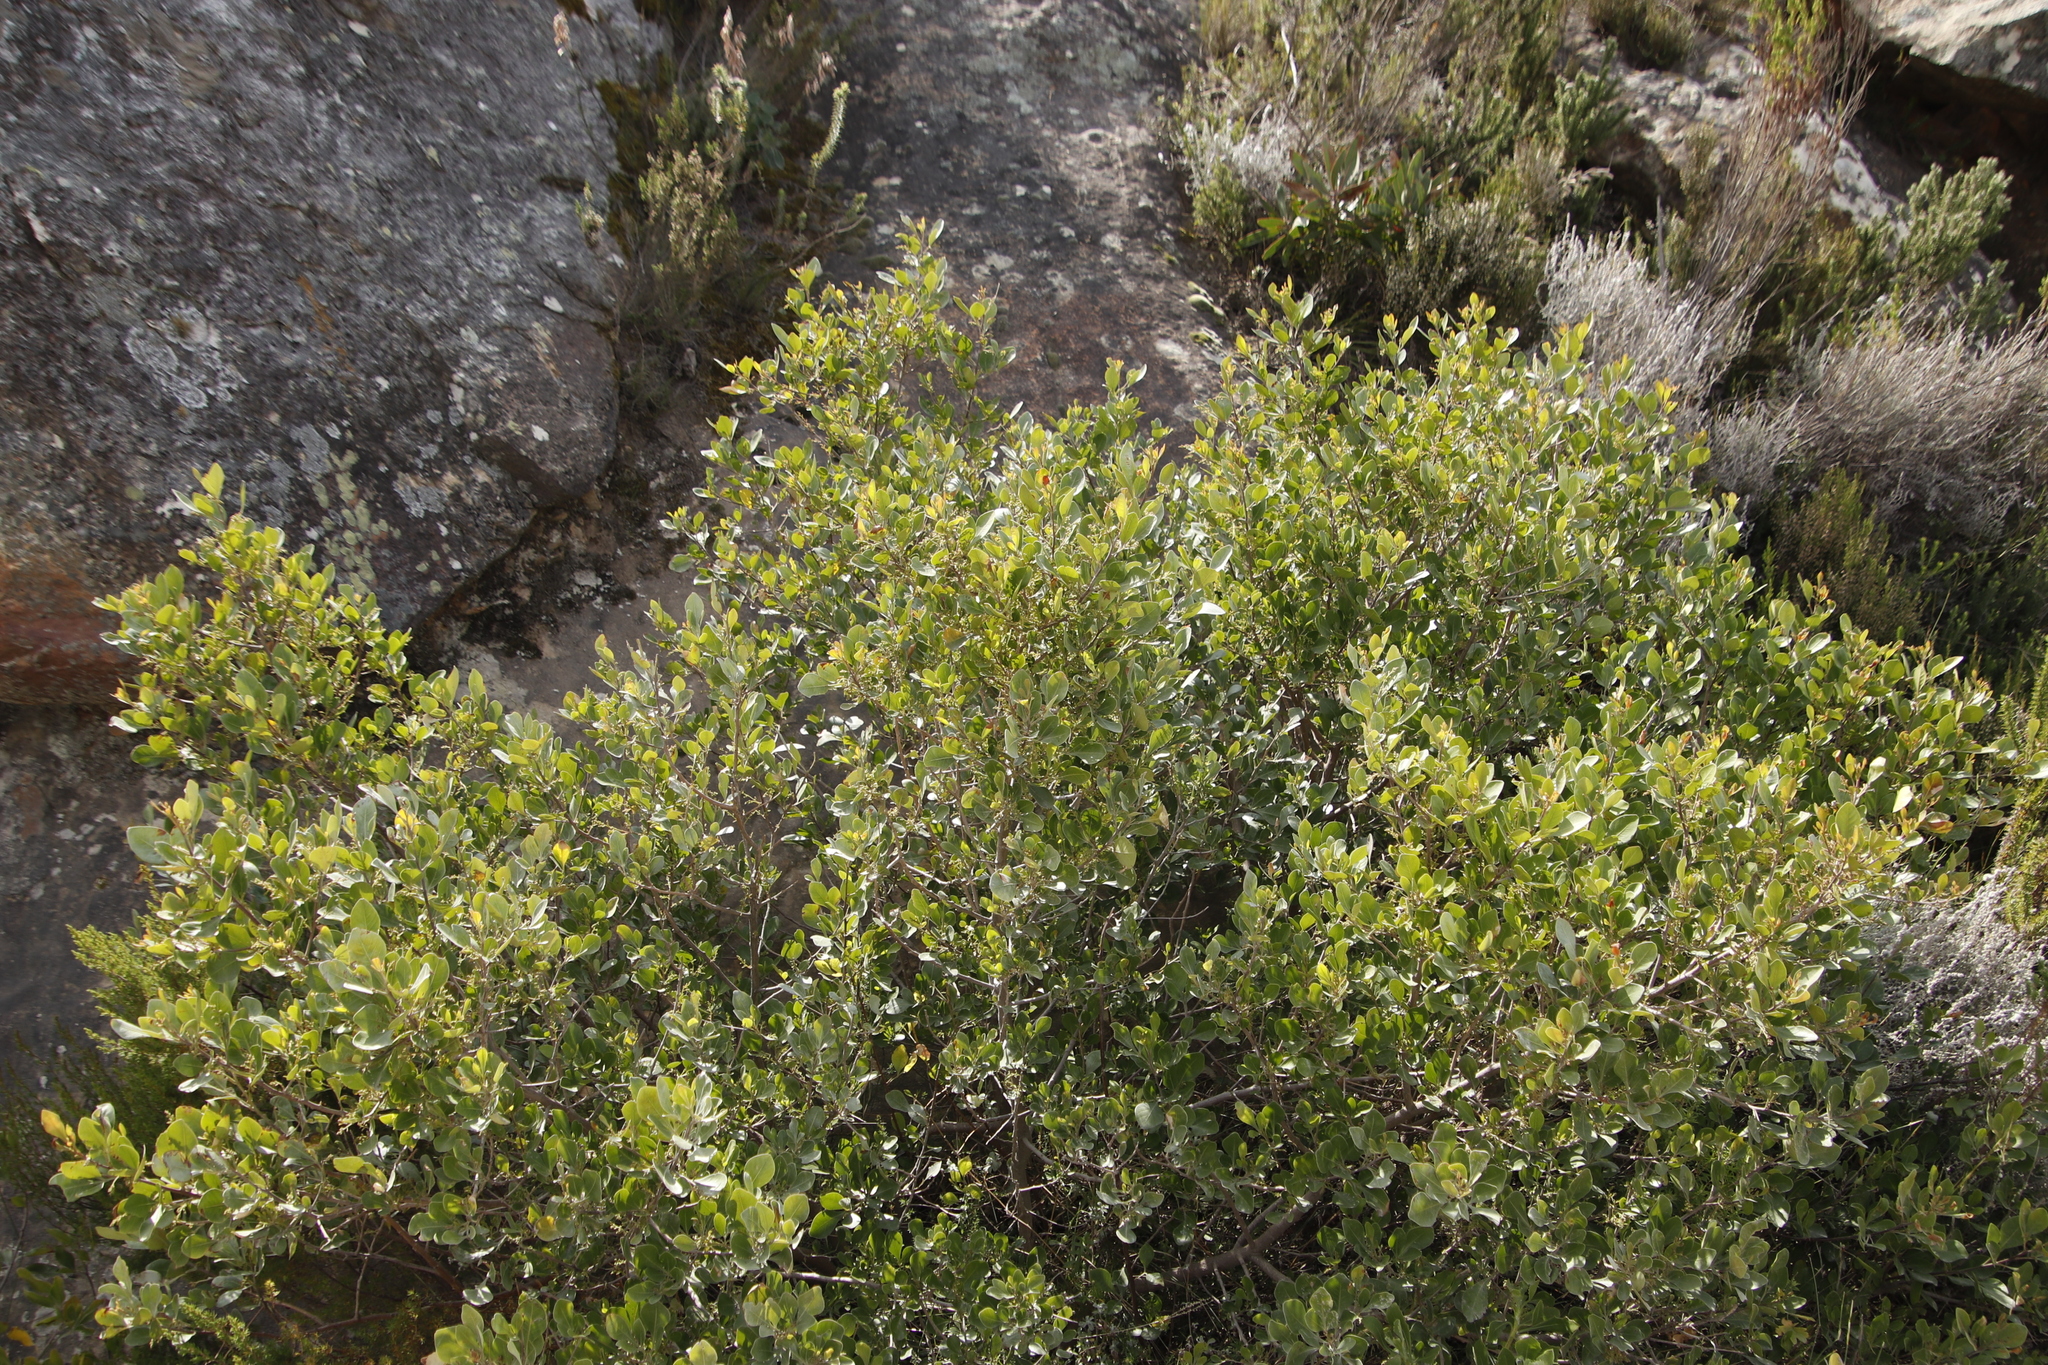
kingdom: Plantae
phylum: Tracheophyta
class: Magnoliopsida
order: Sapindales
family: Anacardiaceae
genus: Searsia
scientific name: Searsia lucida
